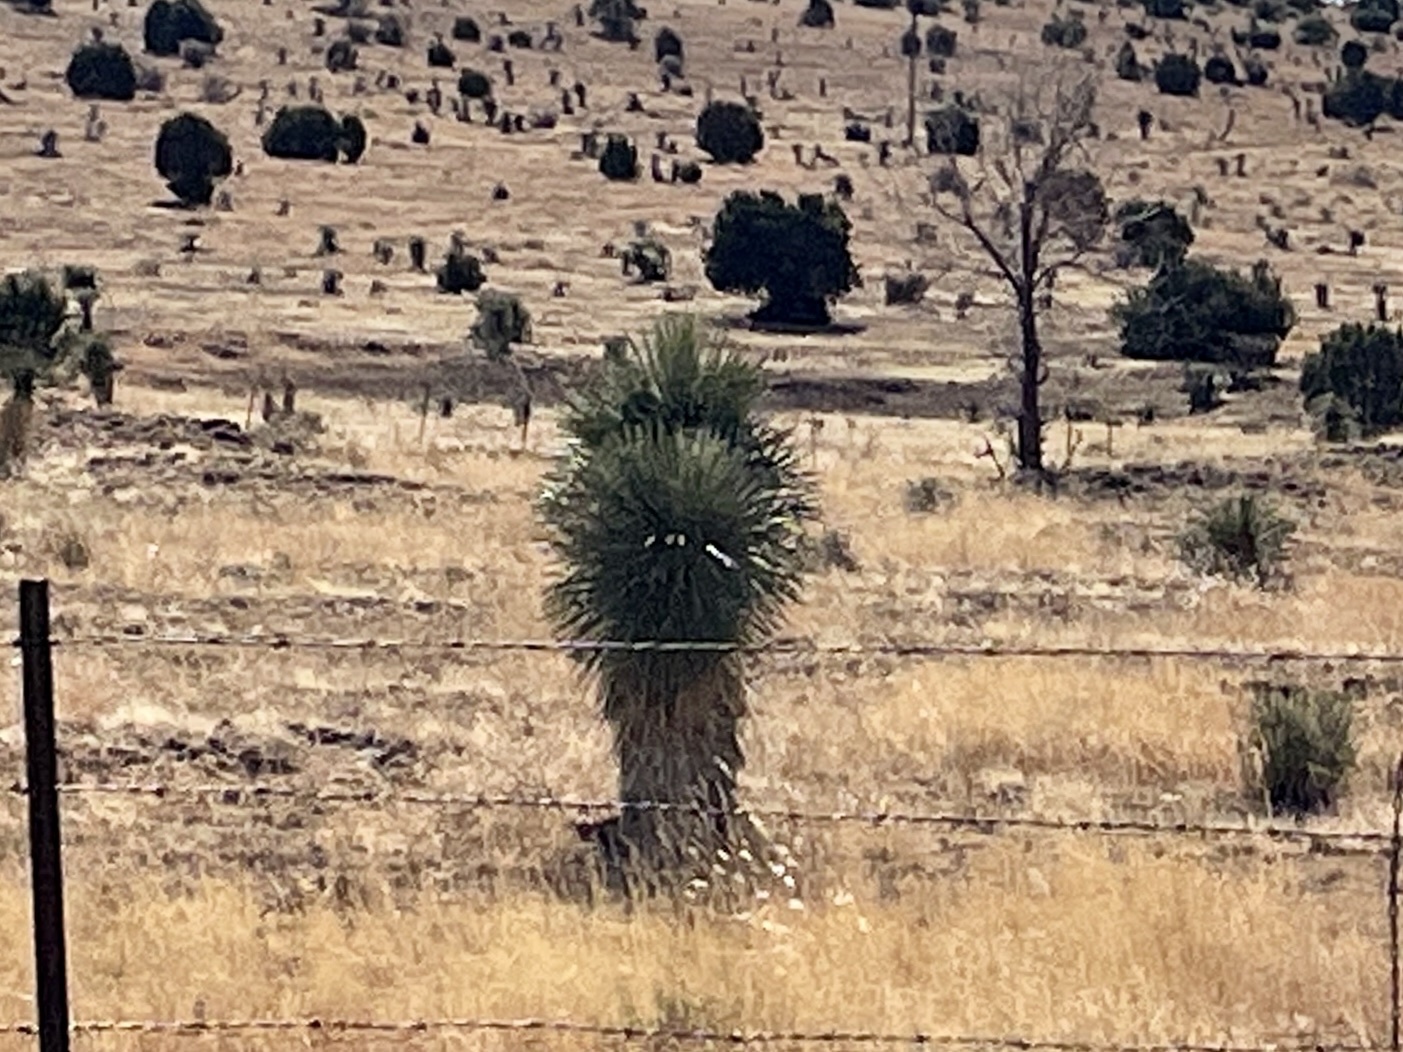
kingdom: Plantae
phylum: Tracheophyta
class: Liliopsida
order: Asparagales
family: Asparagaceae
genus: Yucca
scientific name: Yucca elata
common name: Palmella
